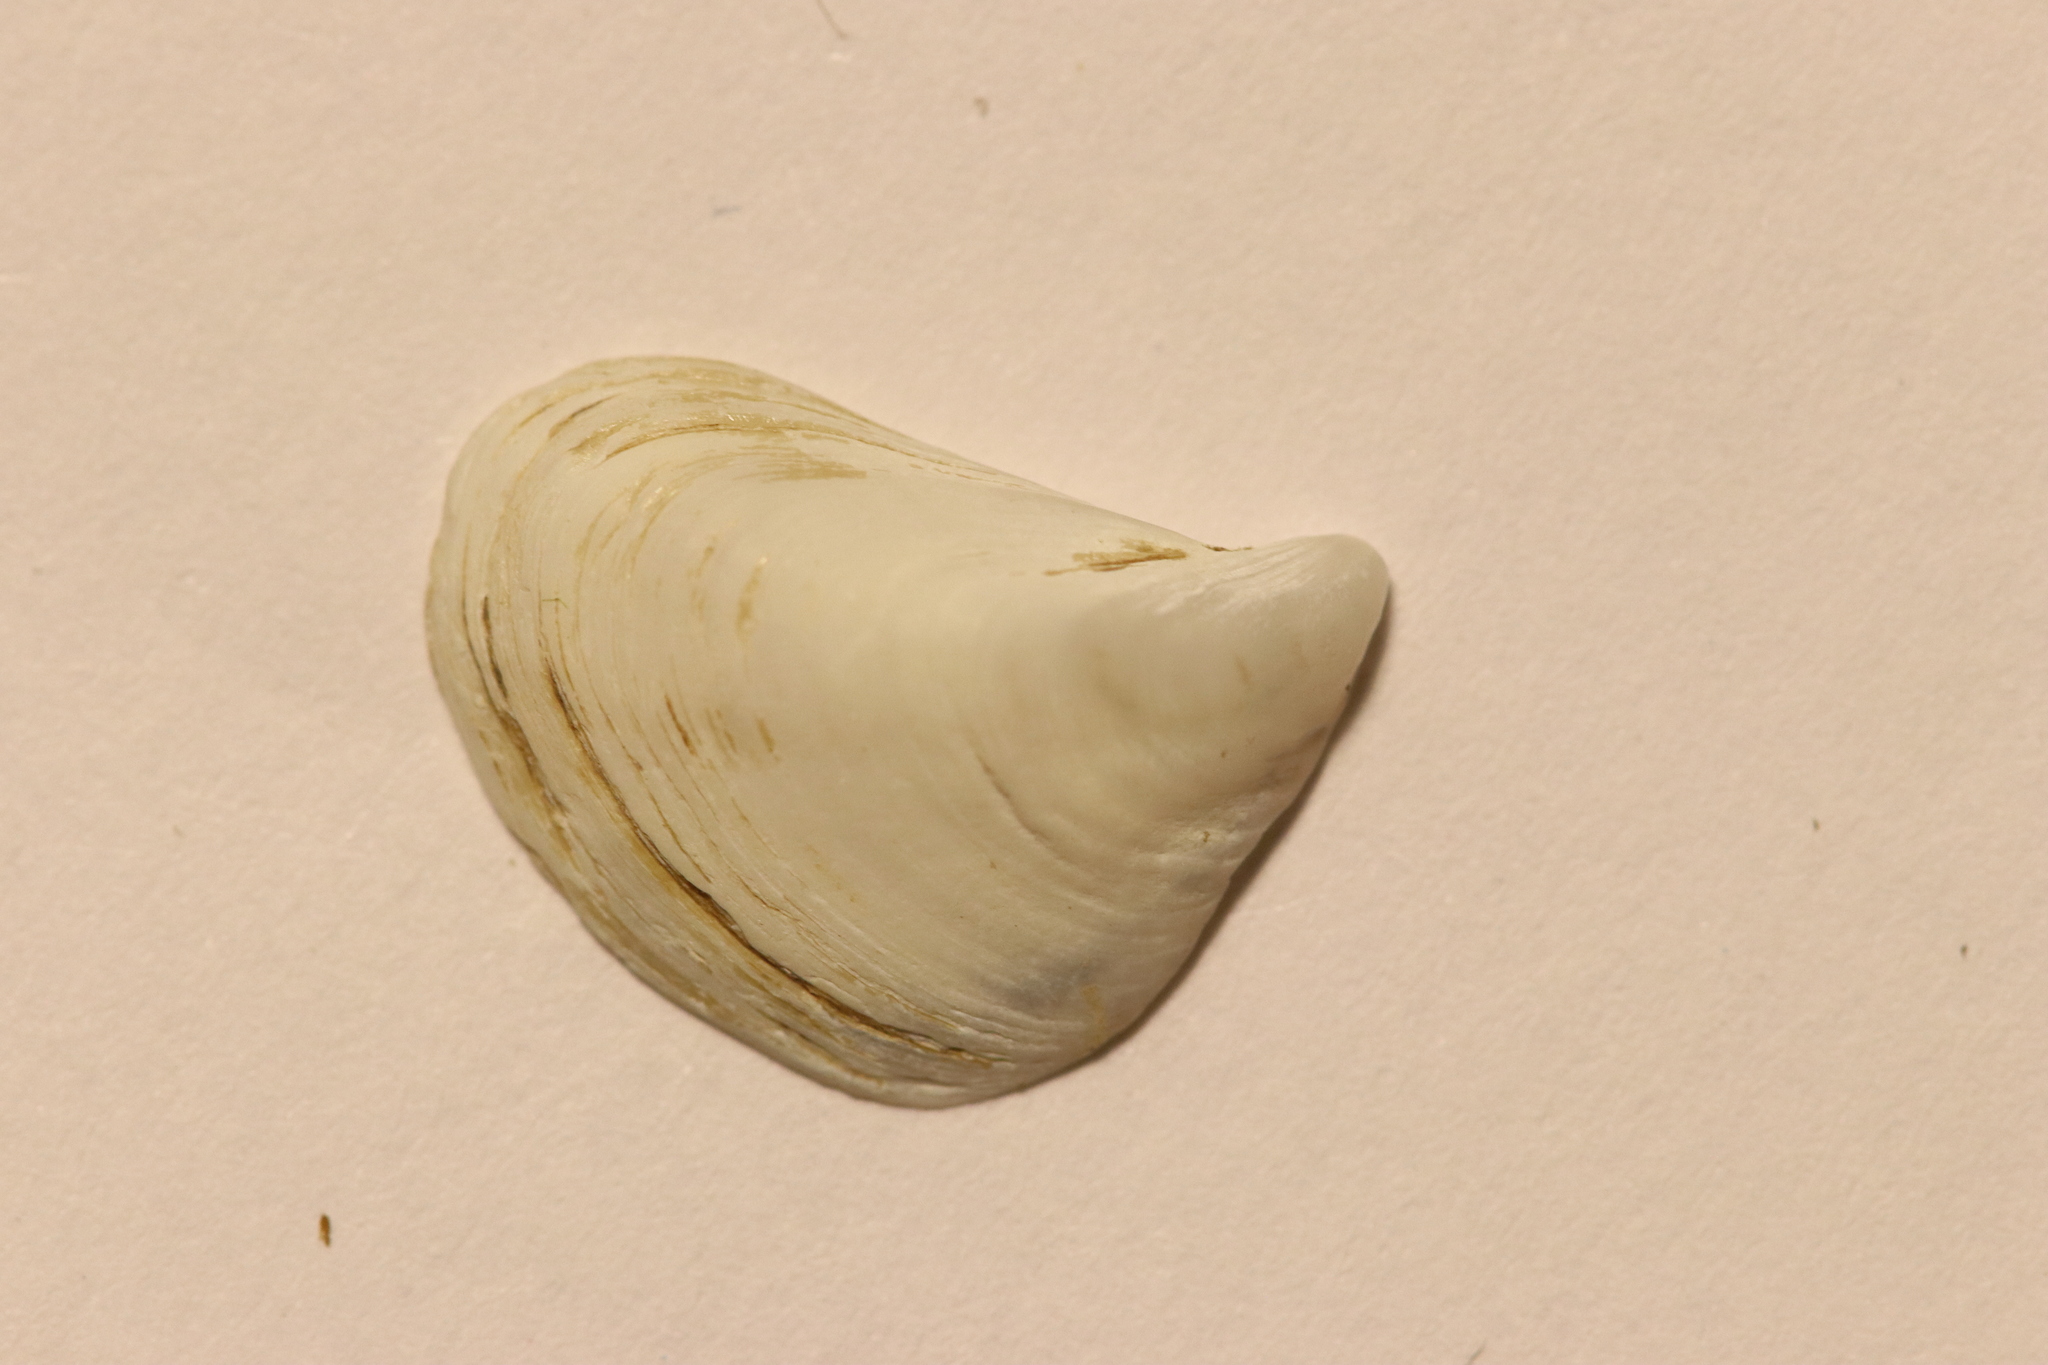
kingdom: Animalia
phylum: Mollusca
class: Bivalvia
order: Myida
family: Dreissenidae
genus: Dreissena
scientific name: Dreissena bugensis
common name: Quagga mussel
